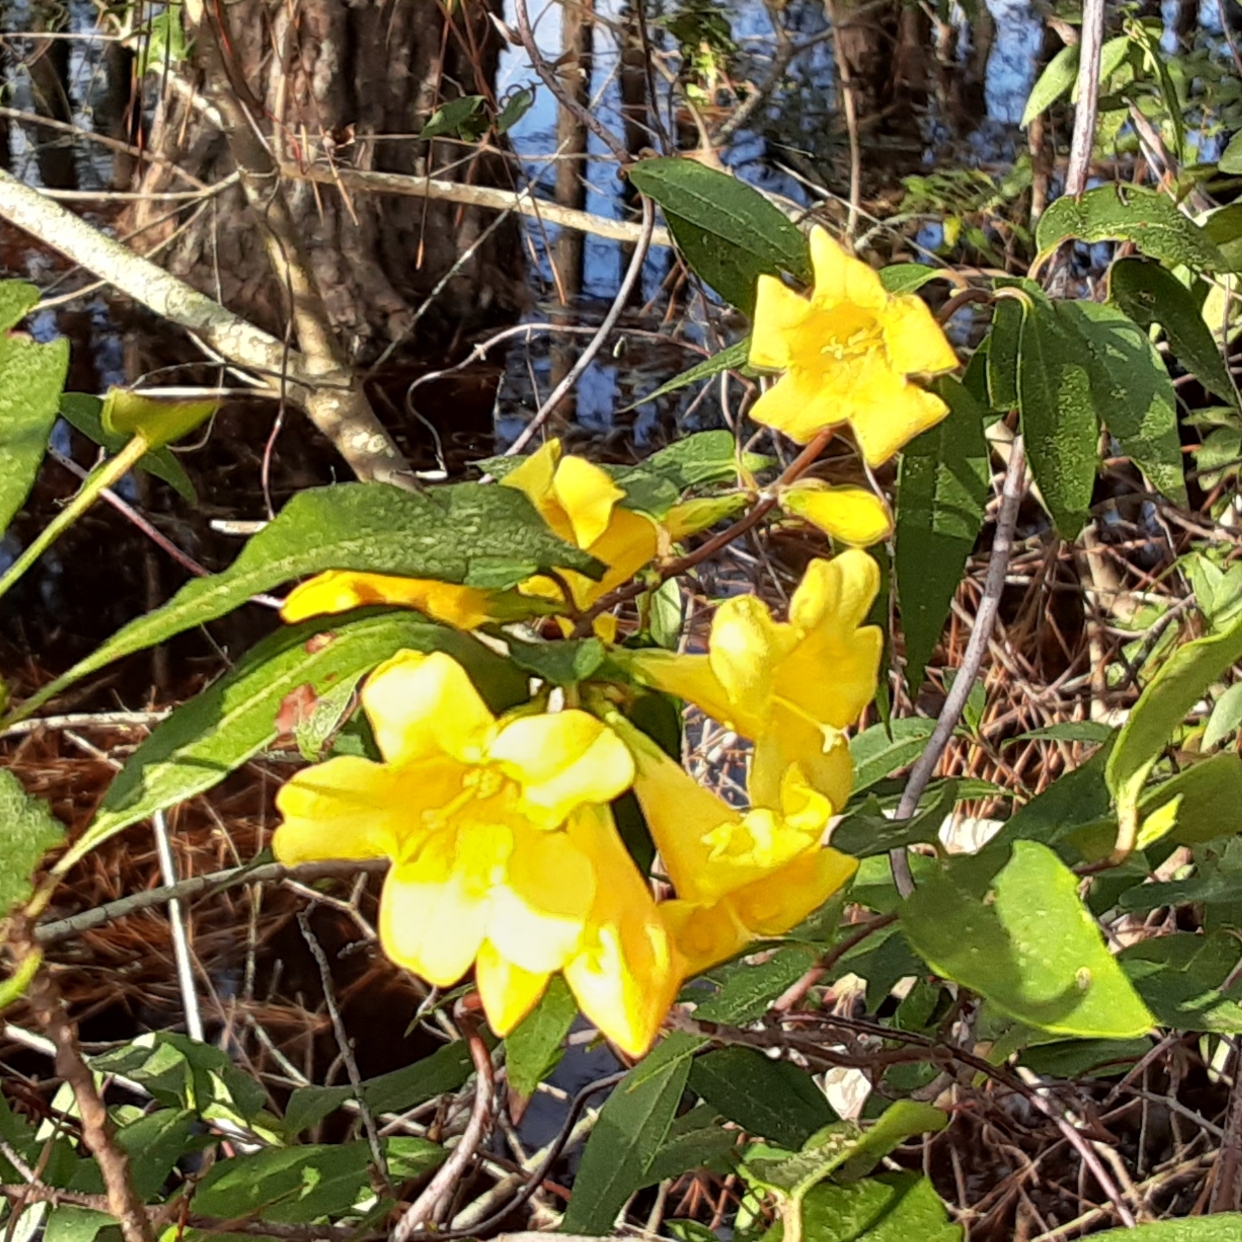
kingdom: Plantae
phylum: Tracheophyta
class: Magnoliopsida
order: Gentianales
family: Gelsemiaceae
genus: Gelsemium
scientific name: Gelsemium sempervirens
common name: Carolina-jasmine
